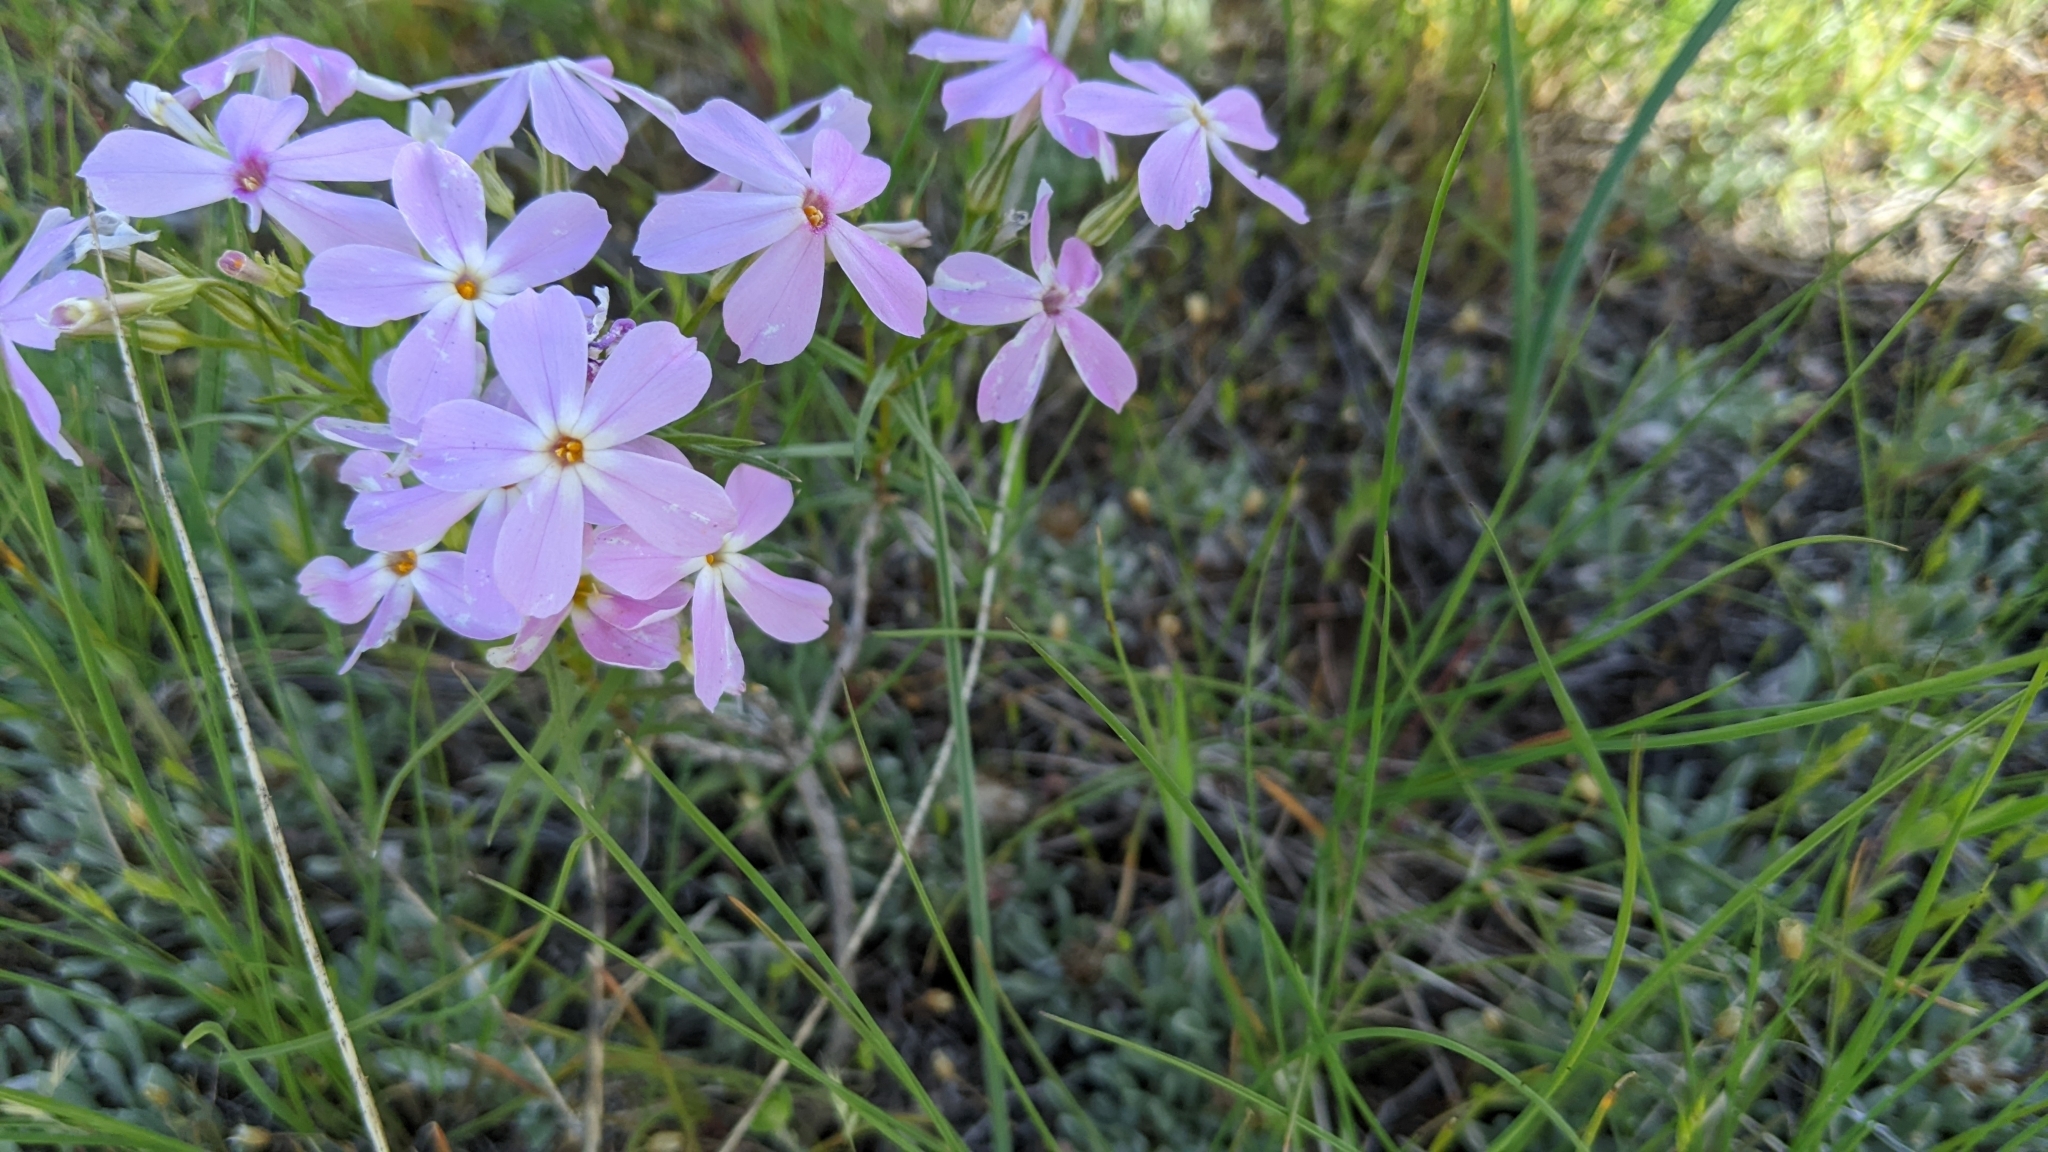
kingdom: Plantae
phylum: Tracheophyta
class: Magnoliopsida
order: Ericales
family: Polemoniaceae
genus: Phlox
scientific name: Phlox longifolia
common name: Longleaf phlox
